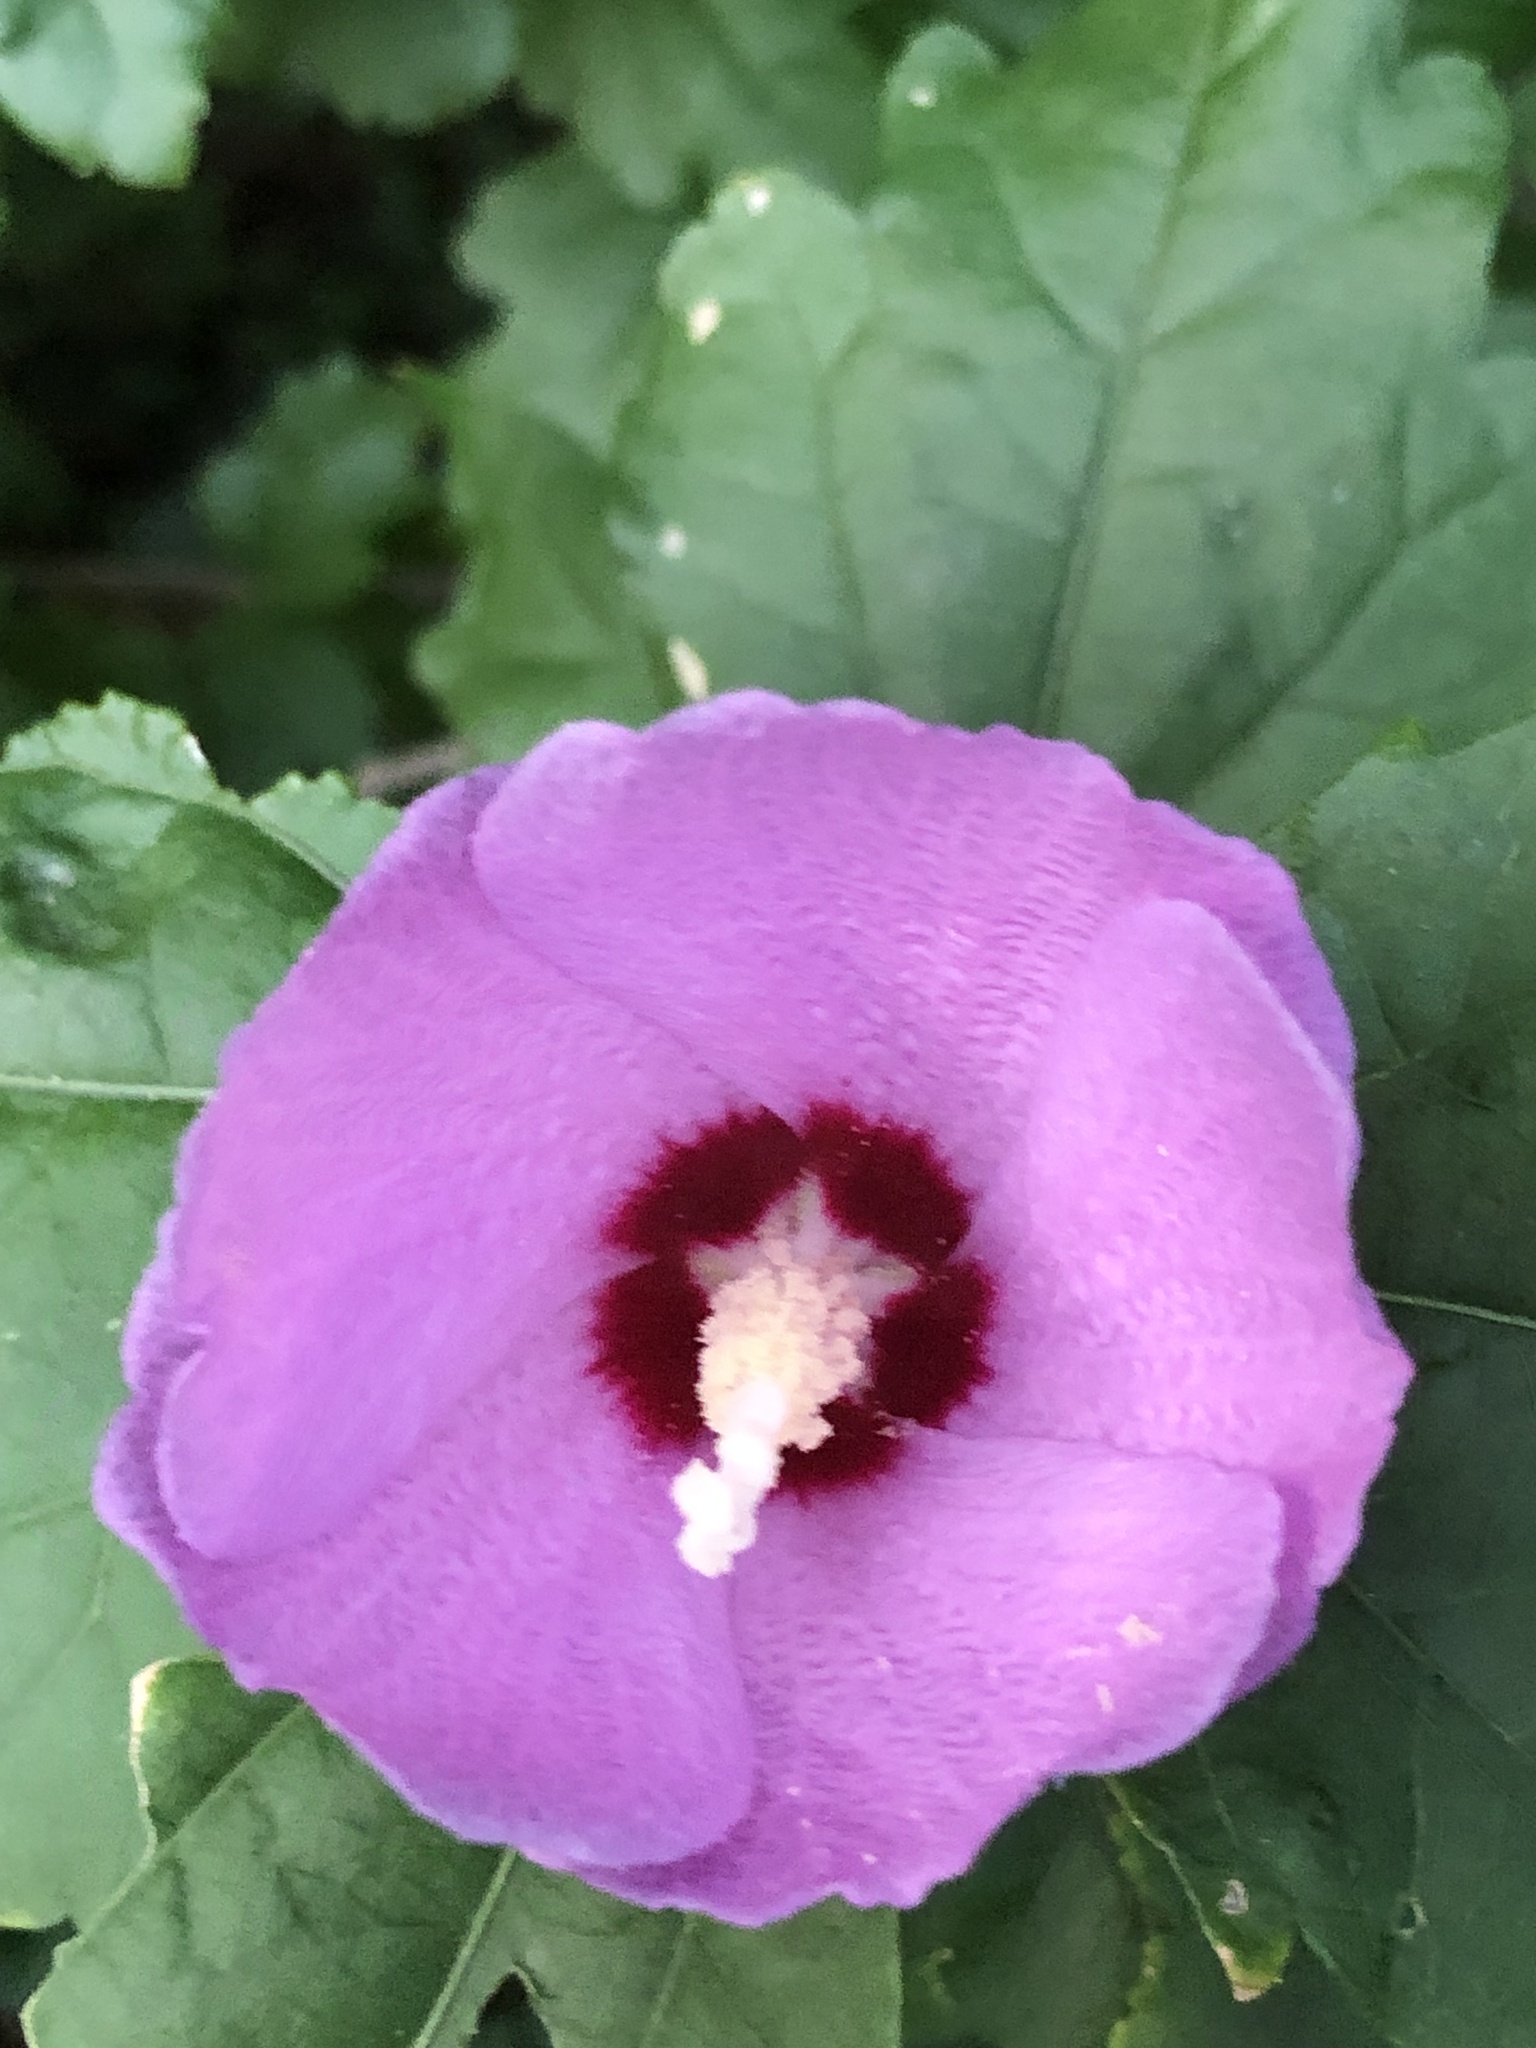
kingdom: Plantae
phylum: Tracheophyta
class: Magnoliopsida
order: Malvales
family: Malvaceae
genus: Hibiscus
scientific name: Hibiscus syriacus
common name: Syrian ketmia
